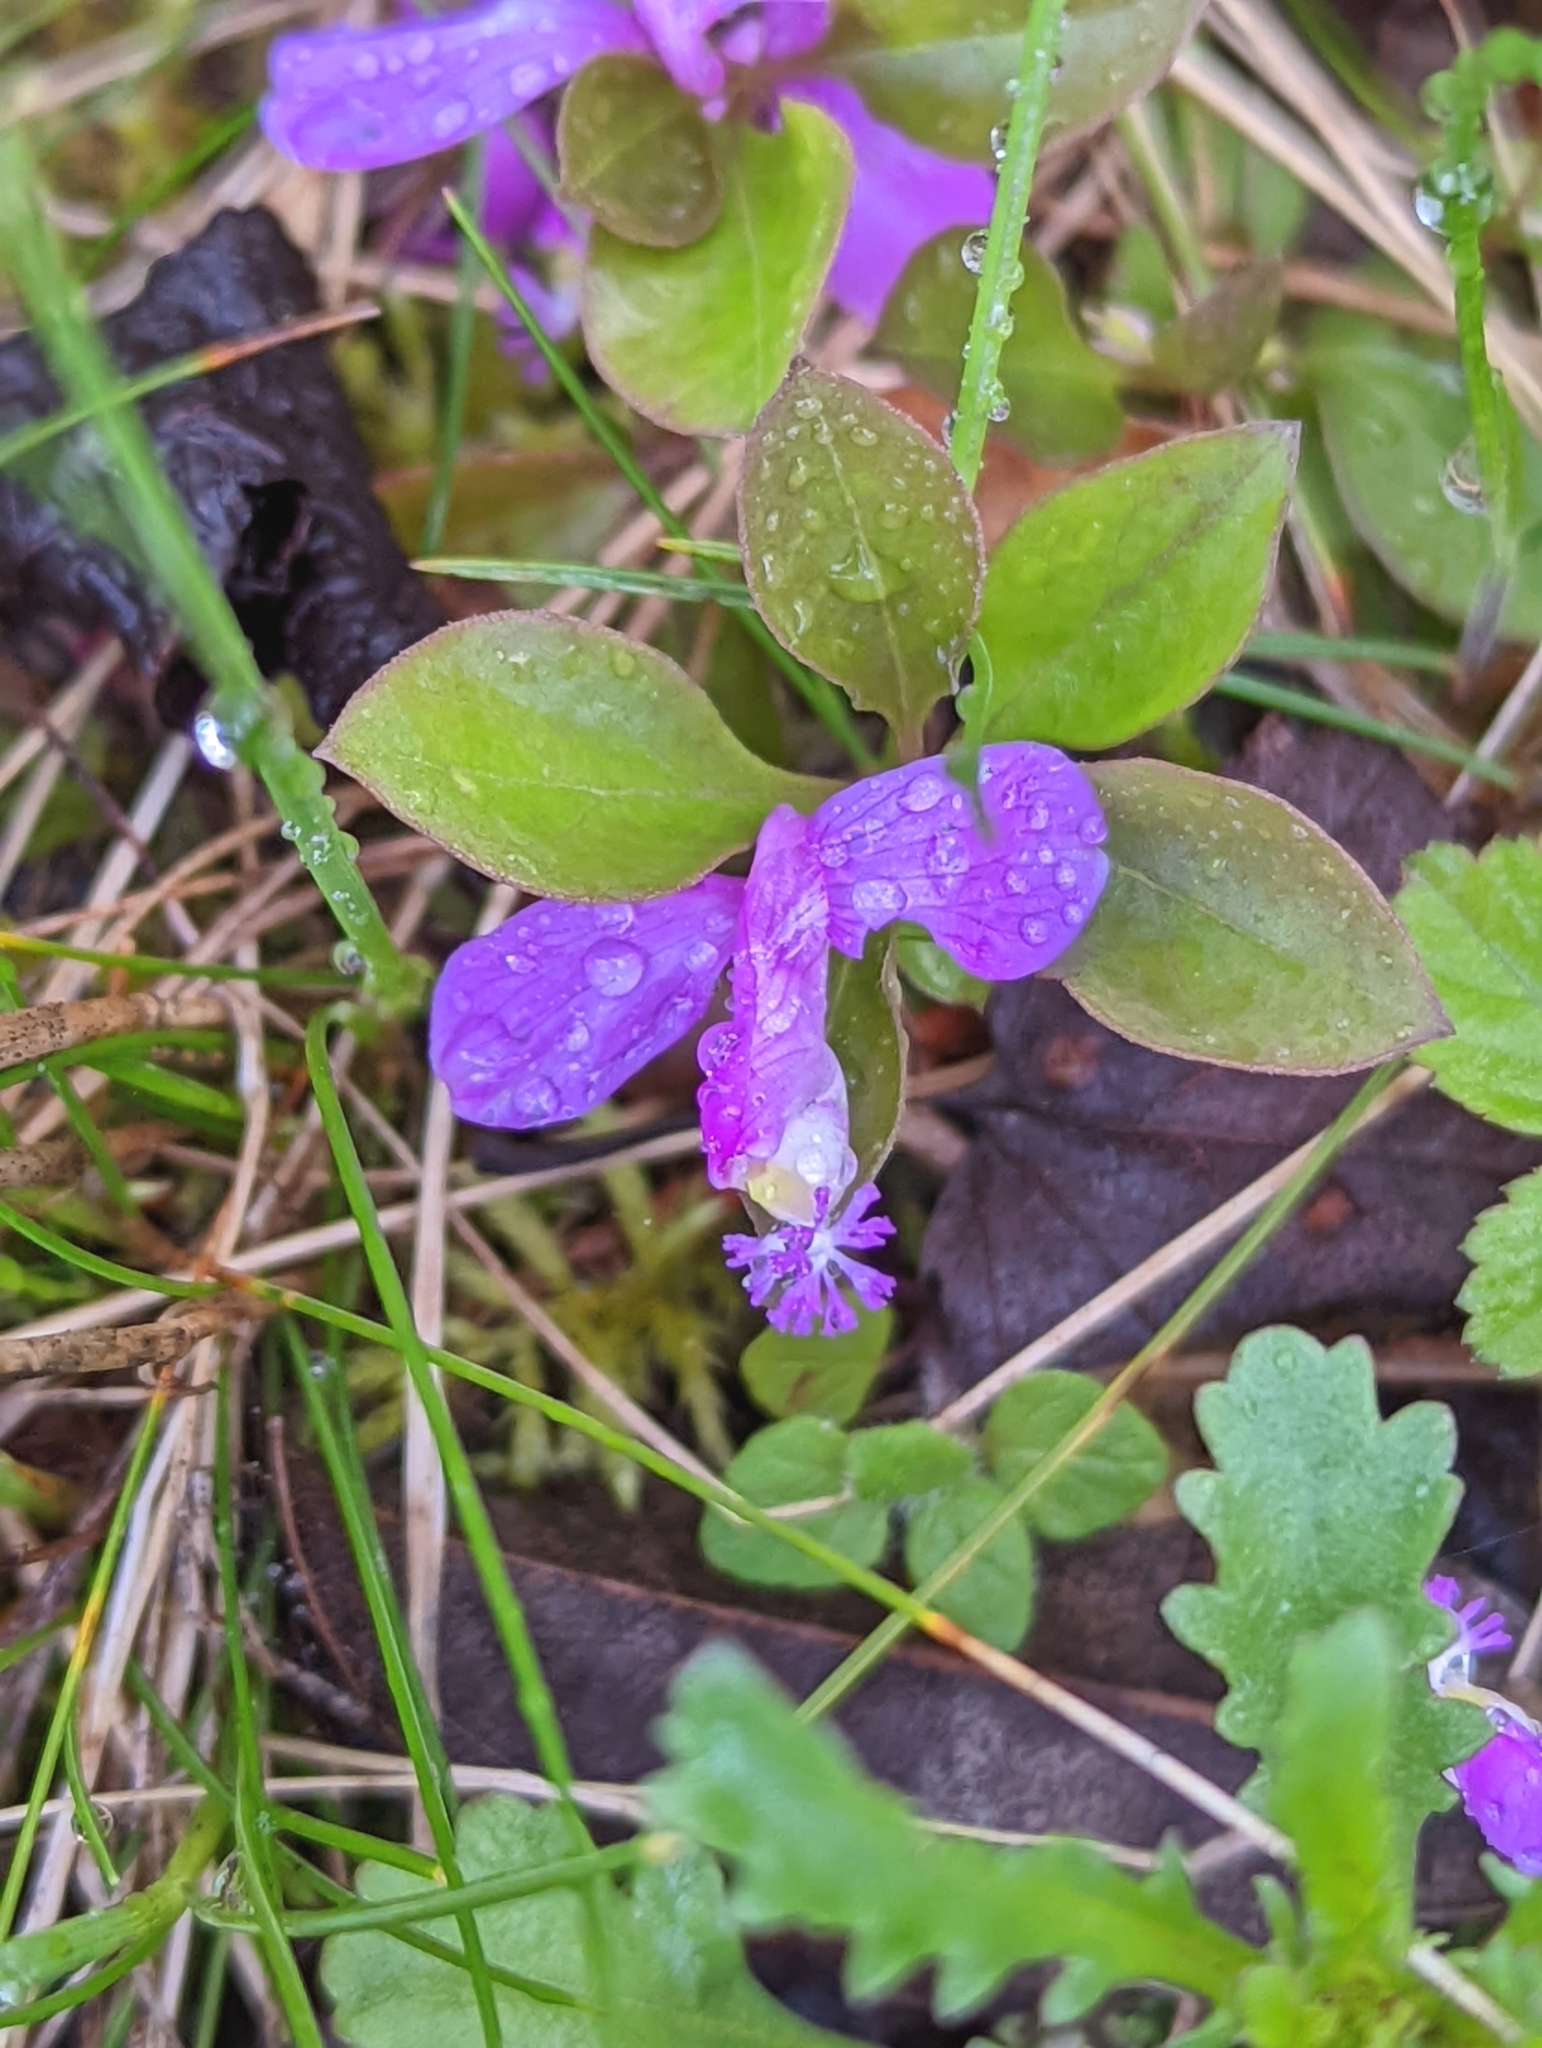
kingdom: Plantae
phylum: Tracheophyta
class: Magnoliopsida
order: Fabales
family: Polygalaceae
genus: Polygaloides
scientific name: Polygaloides paucifolia
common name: Bird-on-the-wing
